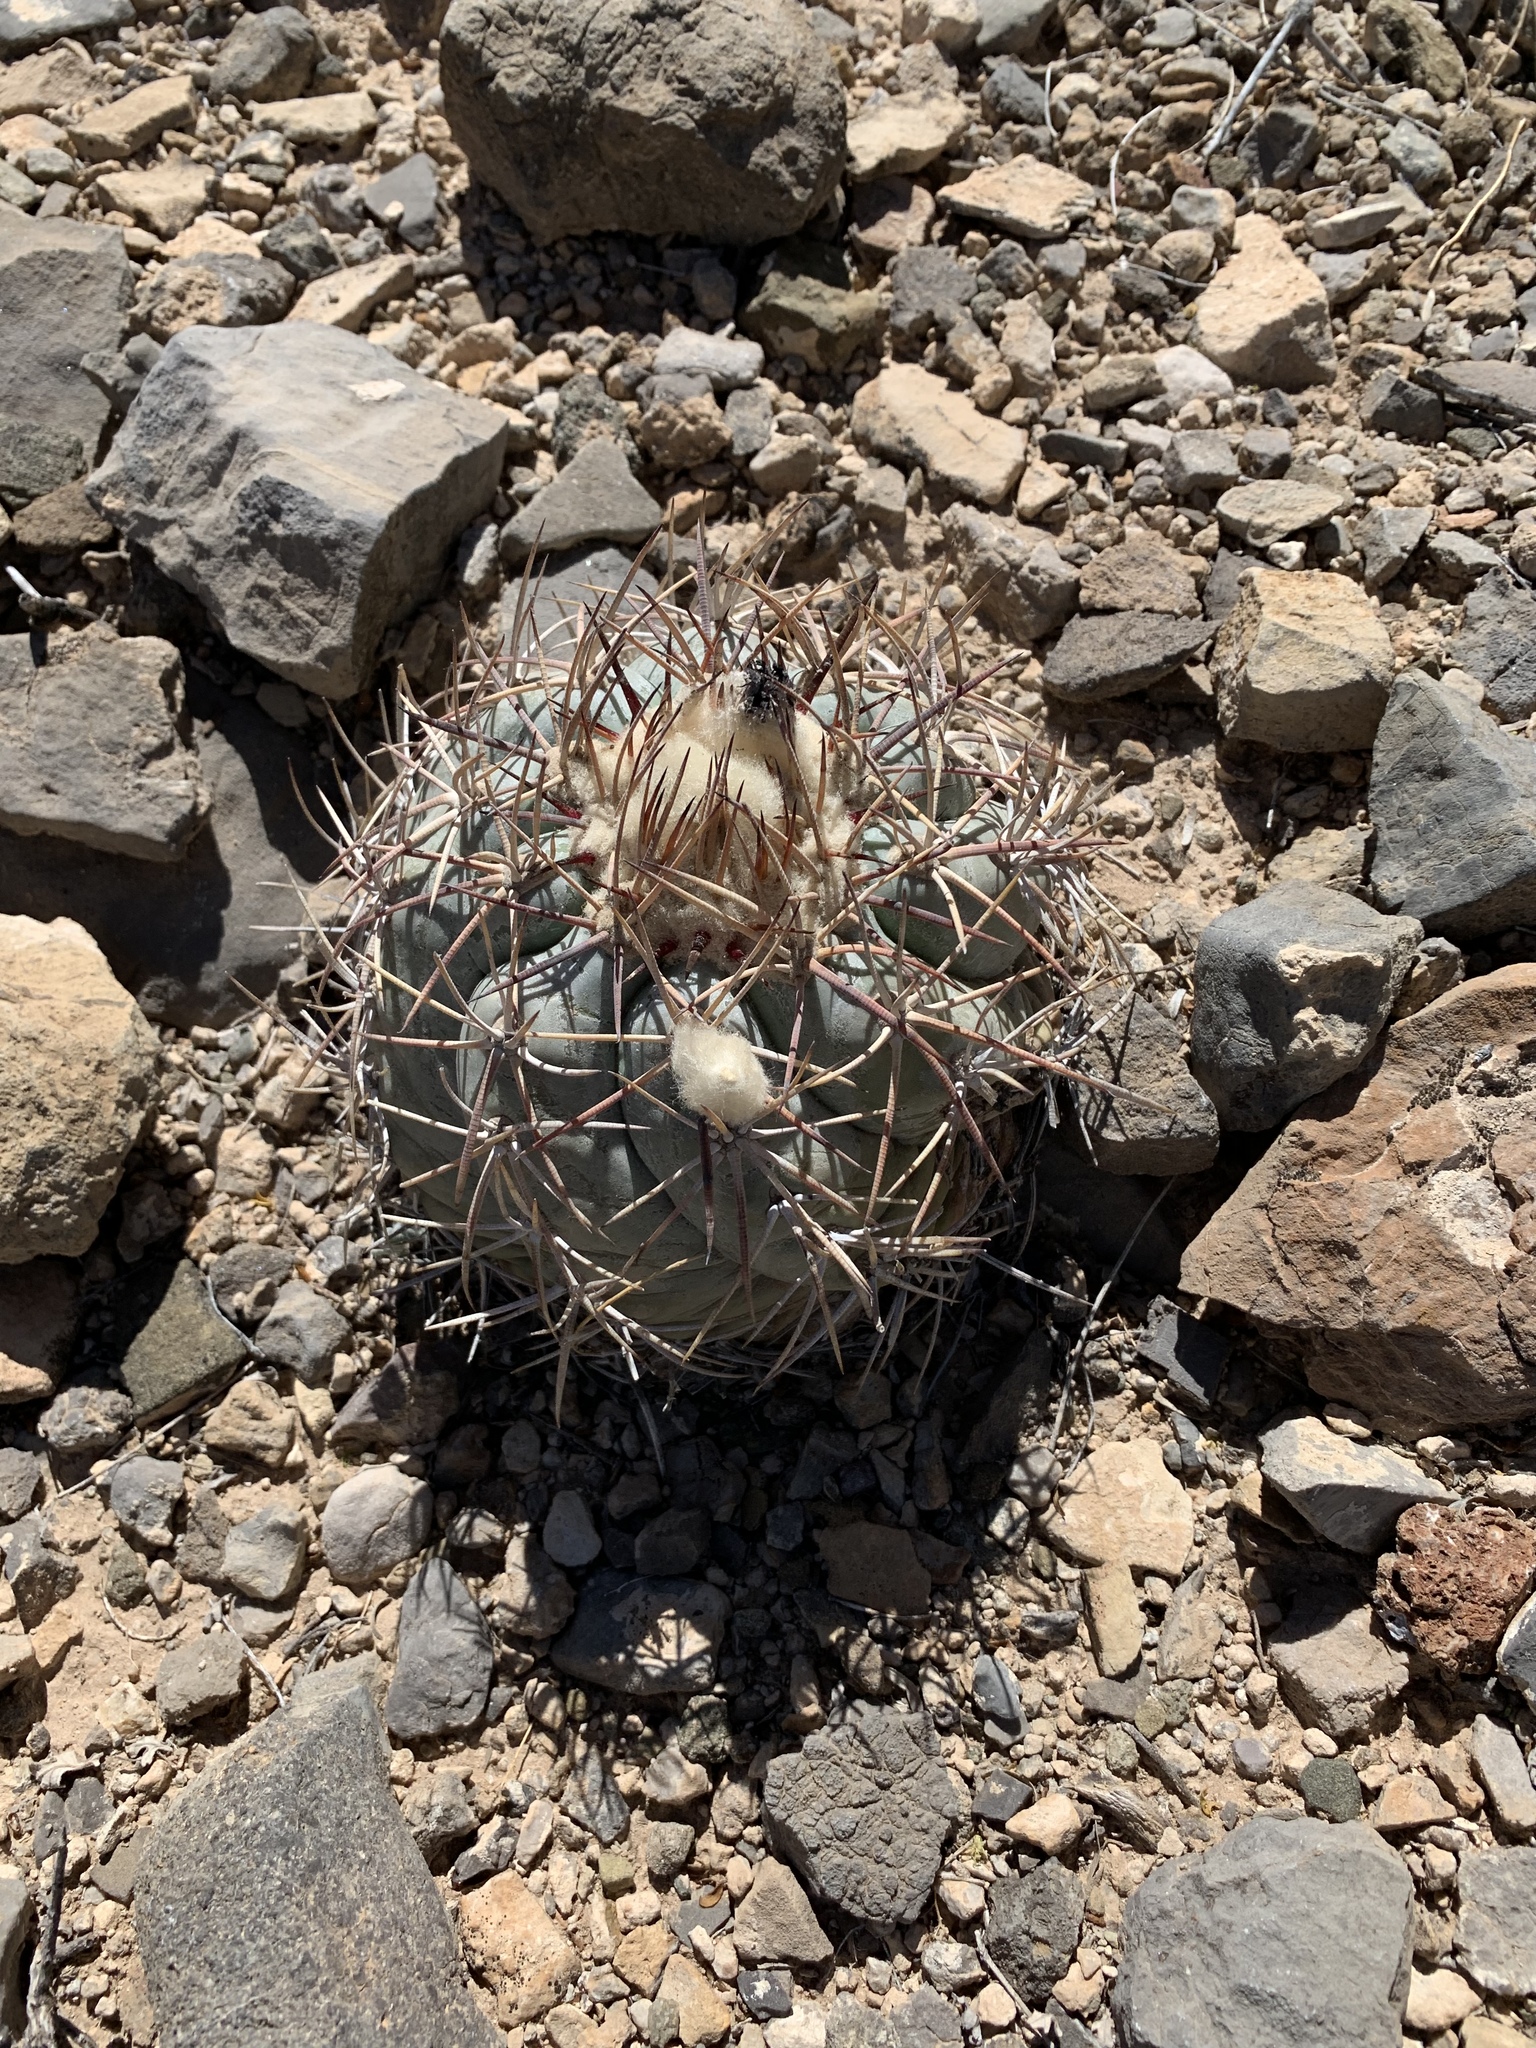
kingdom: Plantae
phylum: Tracheophyta
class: Magnoliopsida
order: Caryophyllales
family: Cactaceae
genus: Echinocactus
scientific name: Echinocactus horizonthalonius
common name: Devilshead
